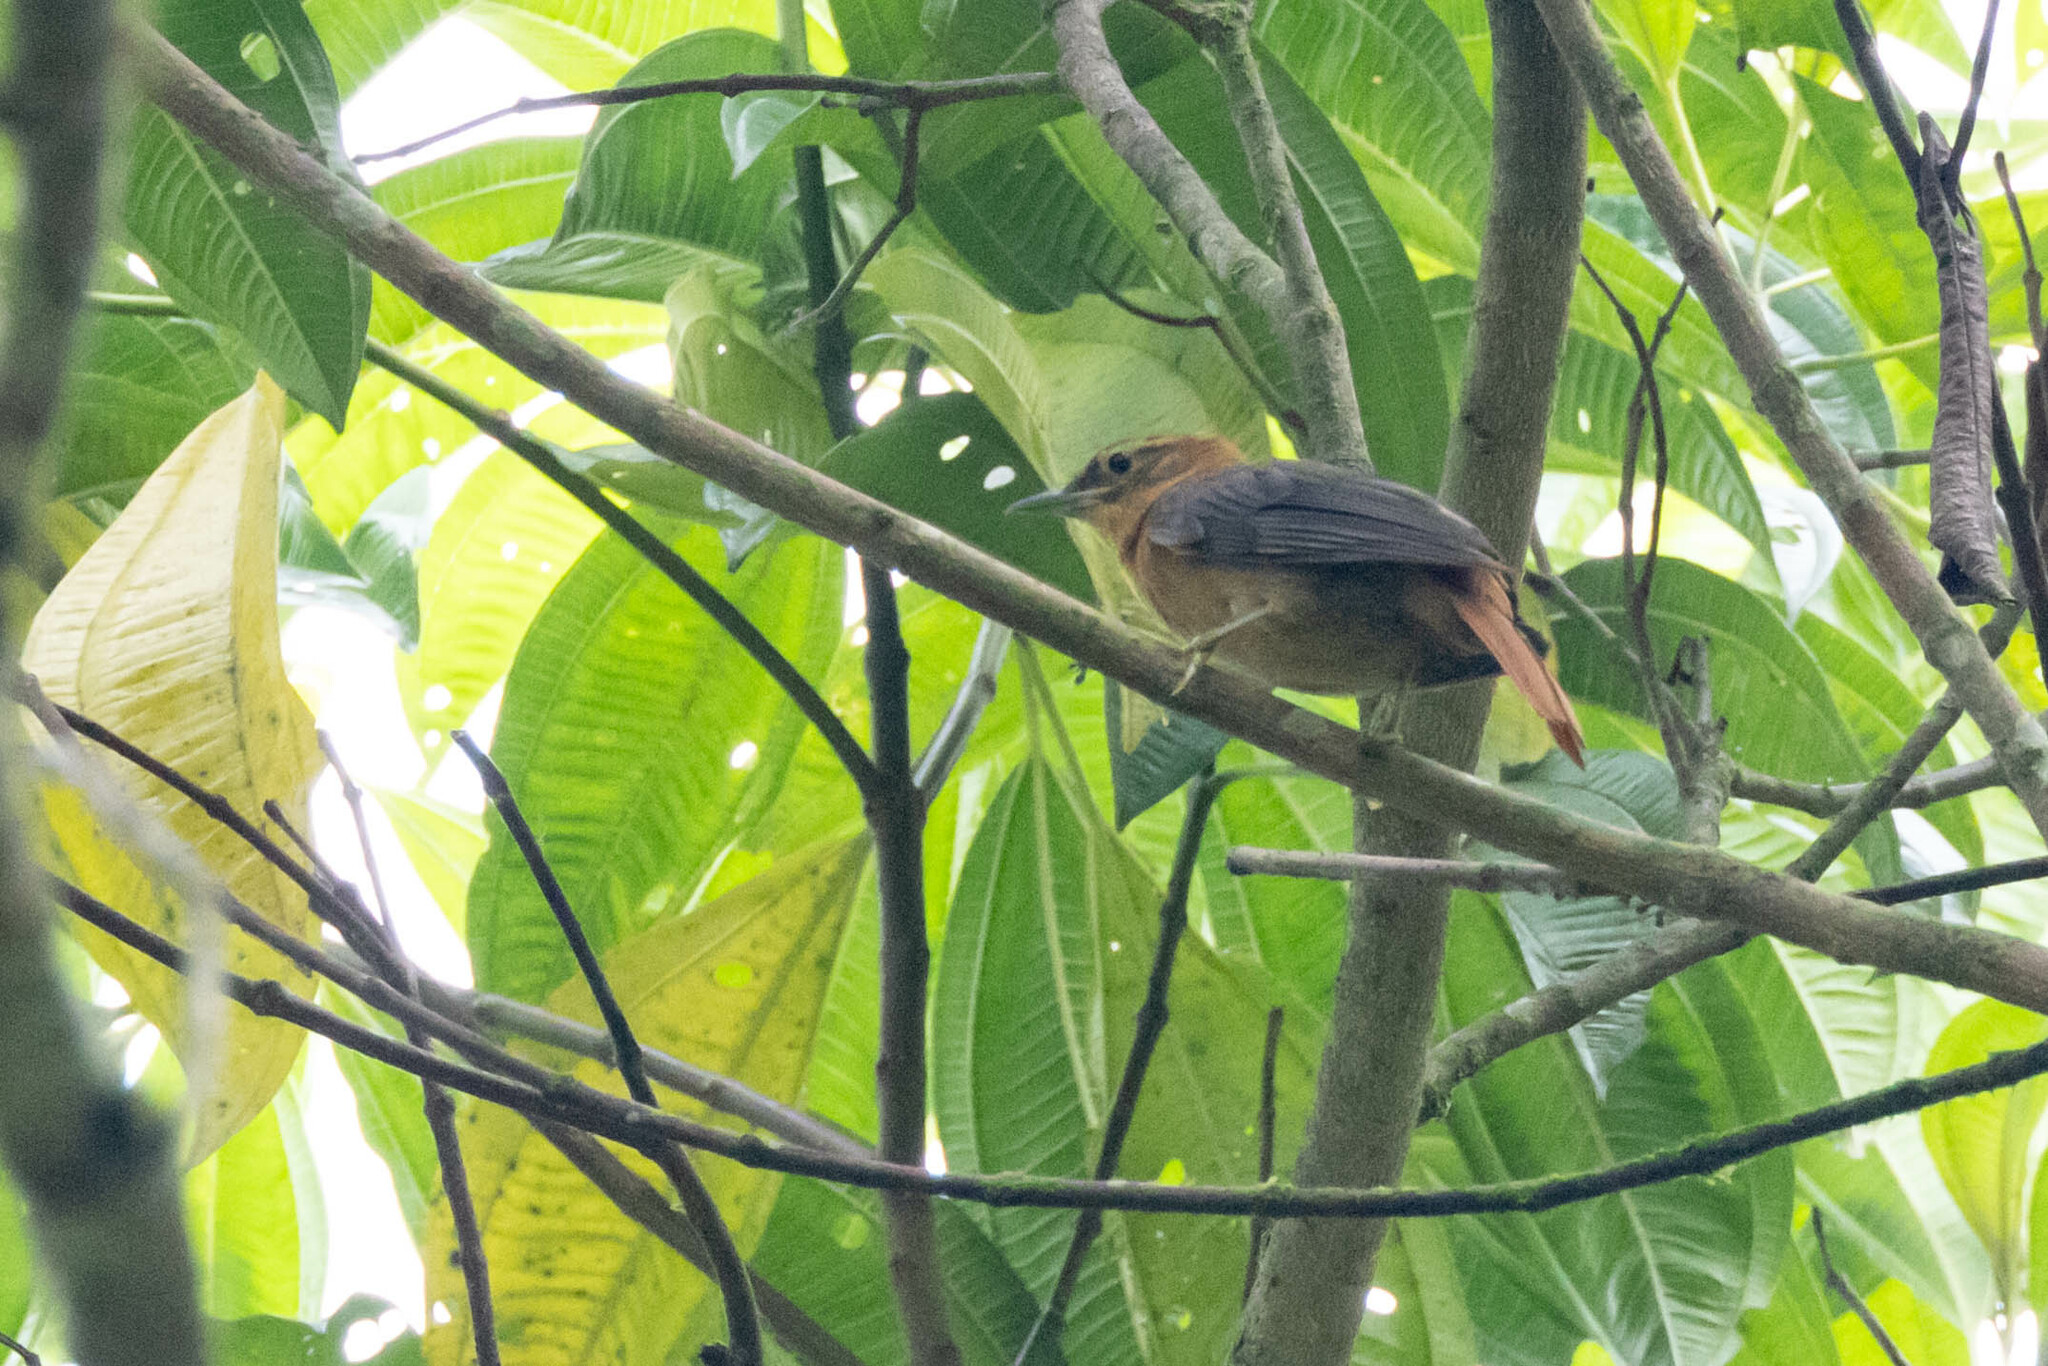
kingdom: Animalia
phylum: Chordata
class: Aves
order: Passeriformes
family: Furnariidae
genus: Philydor
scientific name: Philydor fuscipenne
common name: Slaty-winged foliage-gleaner
